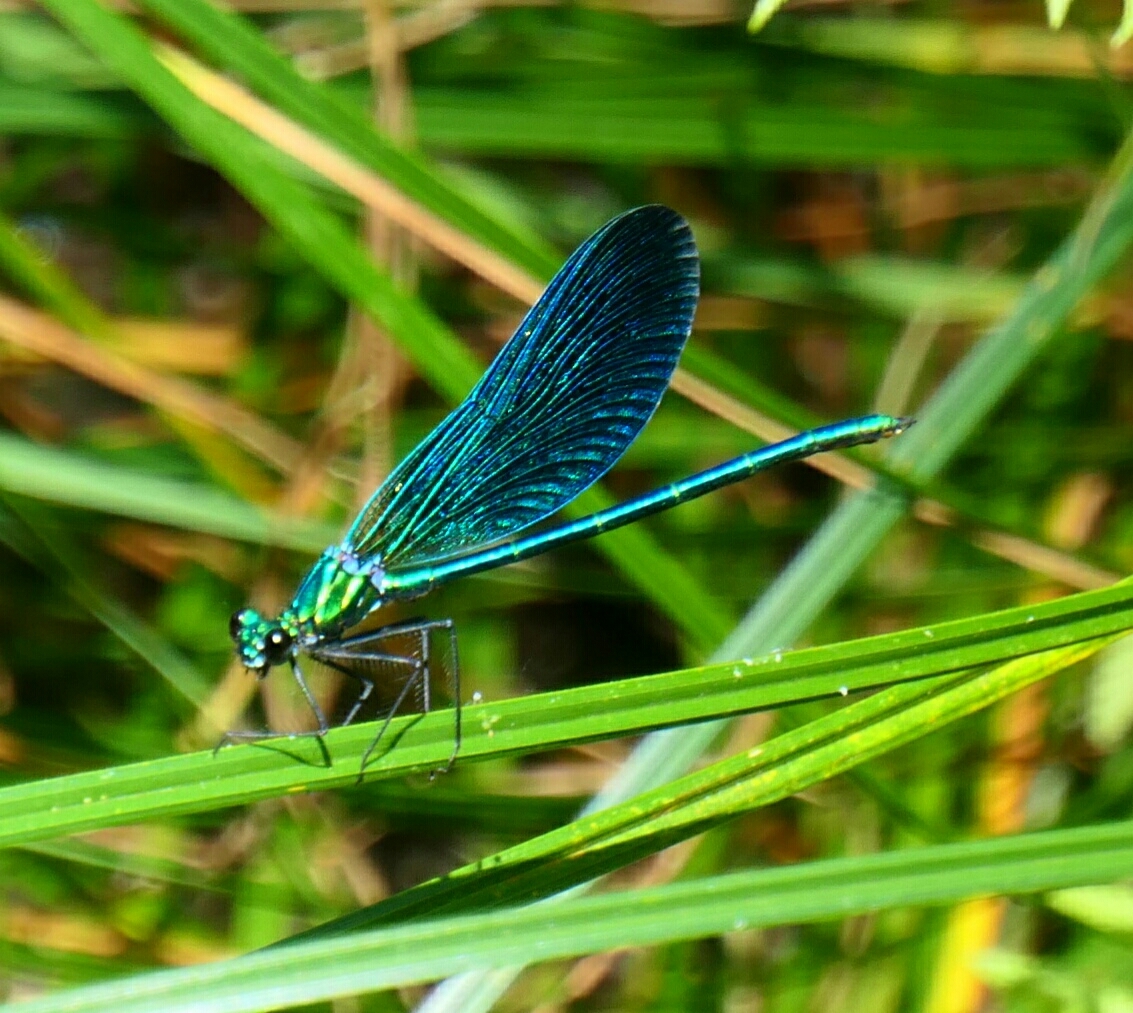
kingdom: Animalia
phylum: Arthropoda
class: Insecta
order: Odonata
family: Calopterygidae
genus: Calopteryx
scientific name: Calopteryx virgo
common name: Beautiful demoiselle
